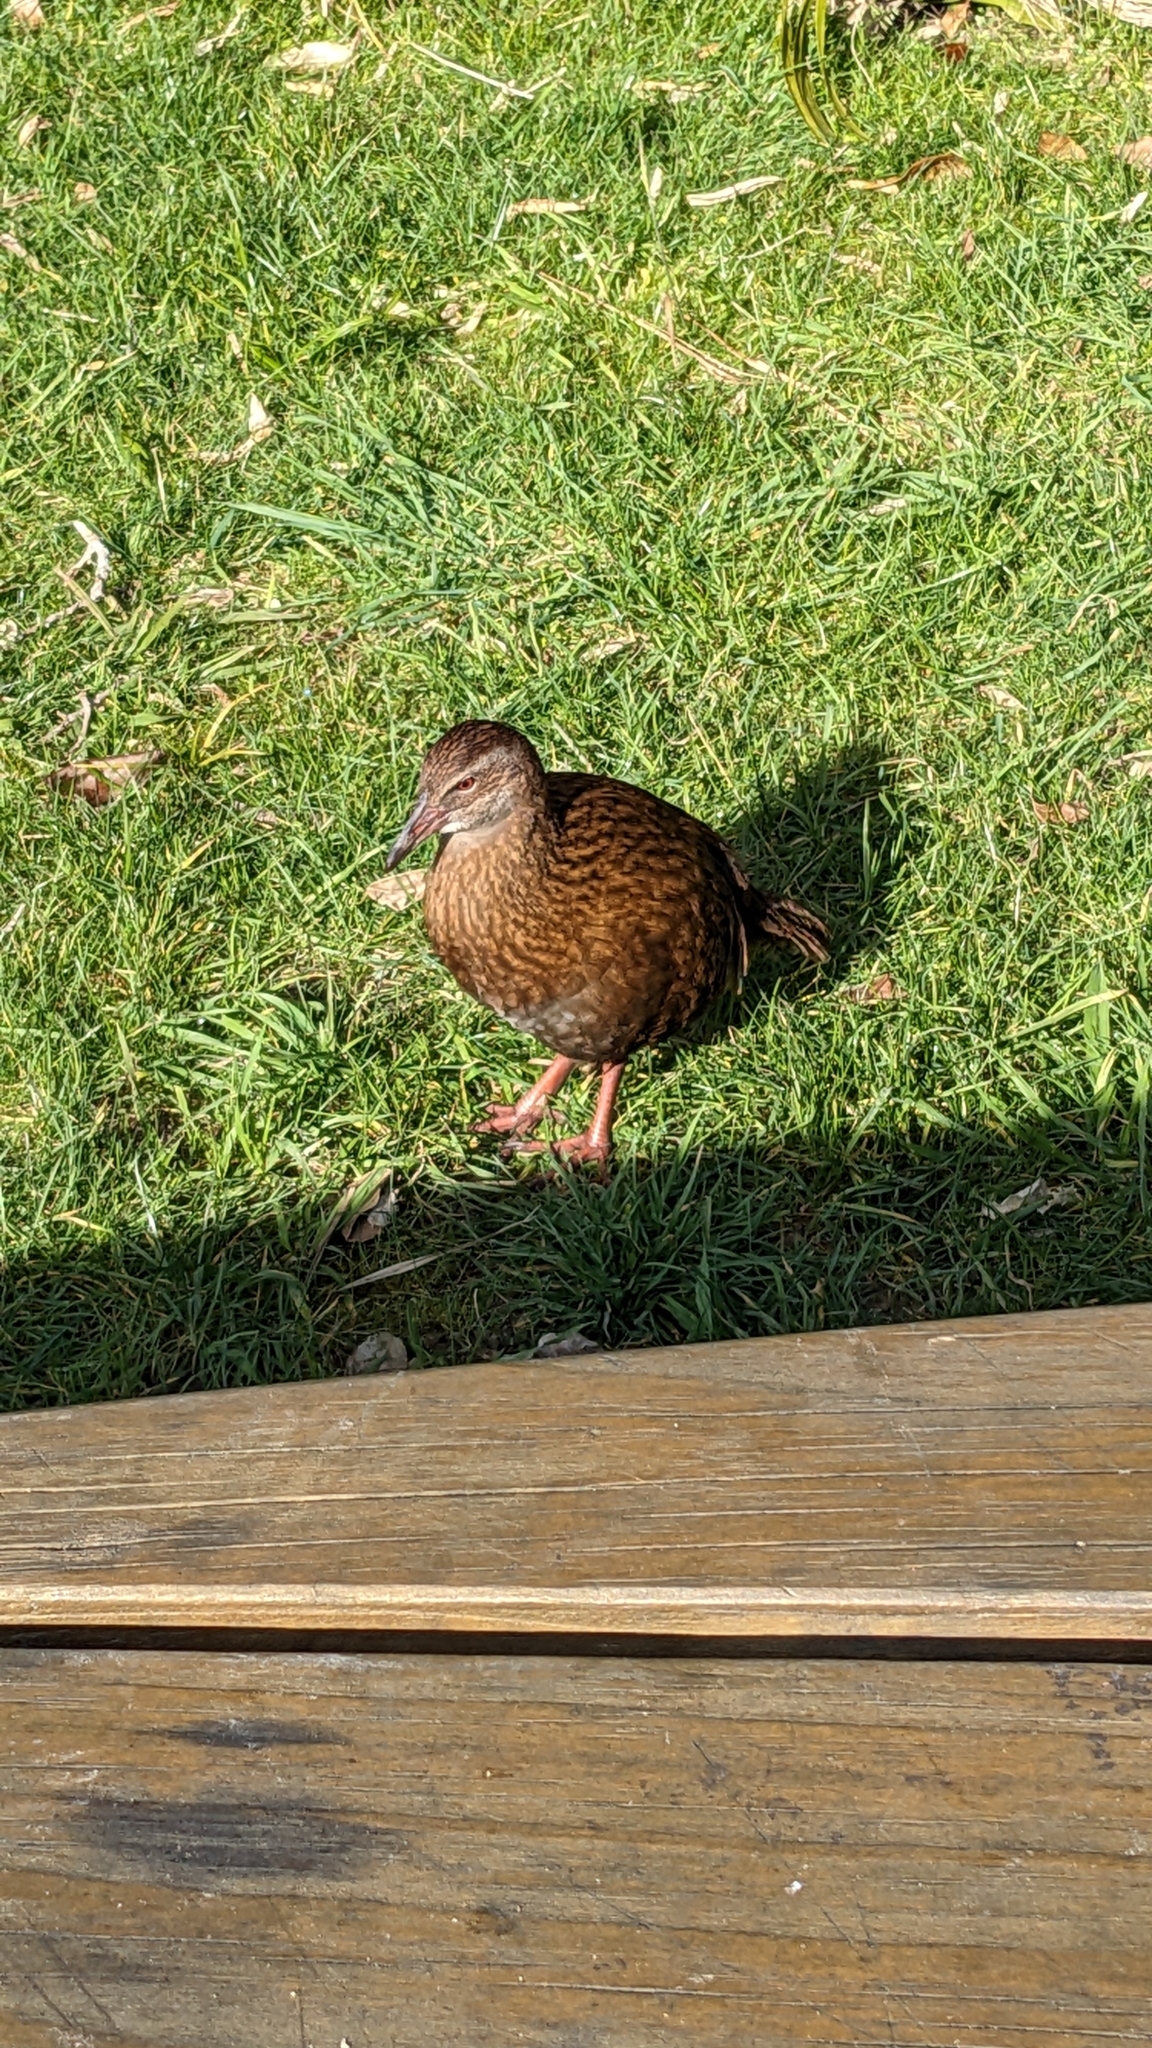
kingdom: Animalia
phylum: Chordata
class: Aves
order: Gruiformes
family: Rallidae
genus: Gallirallus
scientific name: Gallirallus australis
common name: Weka
